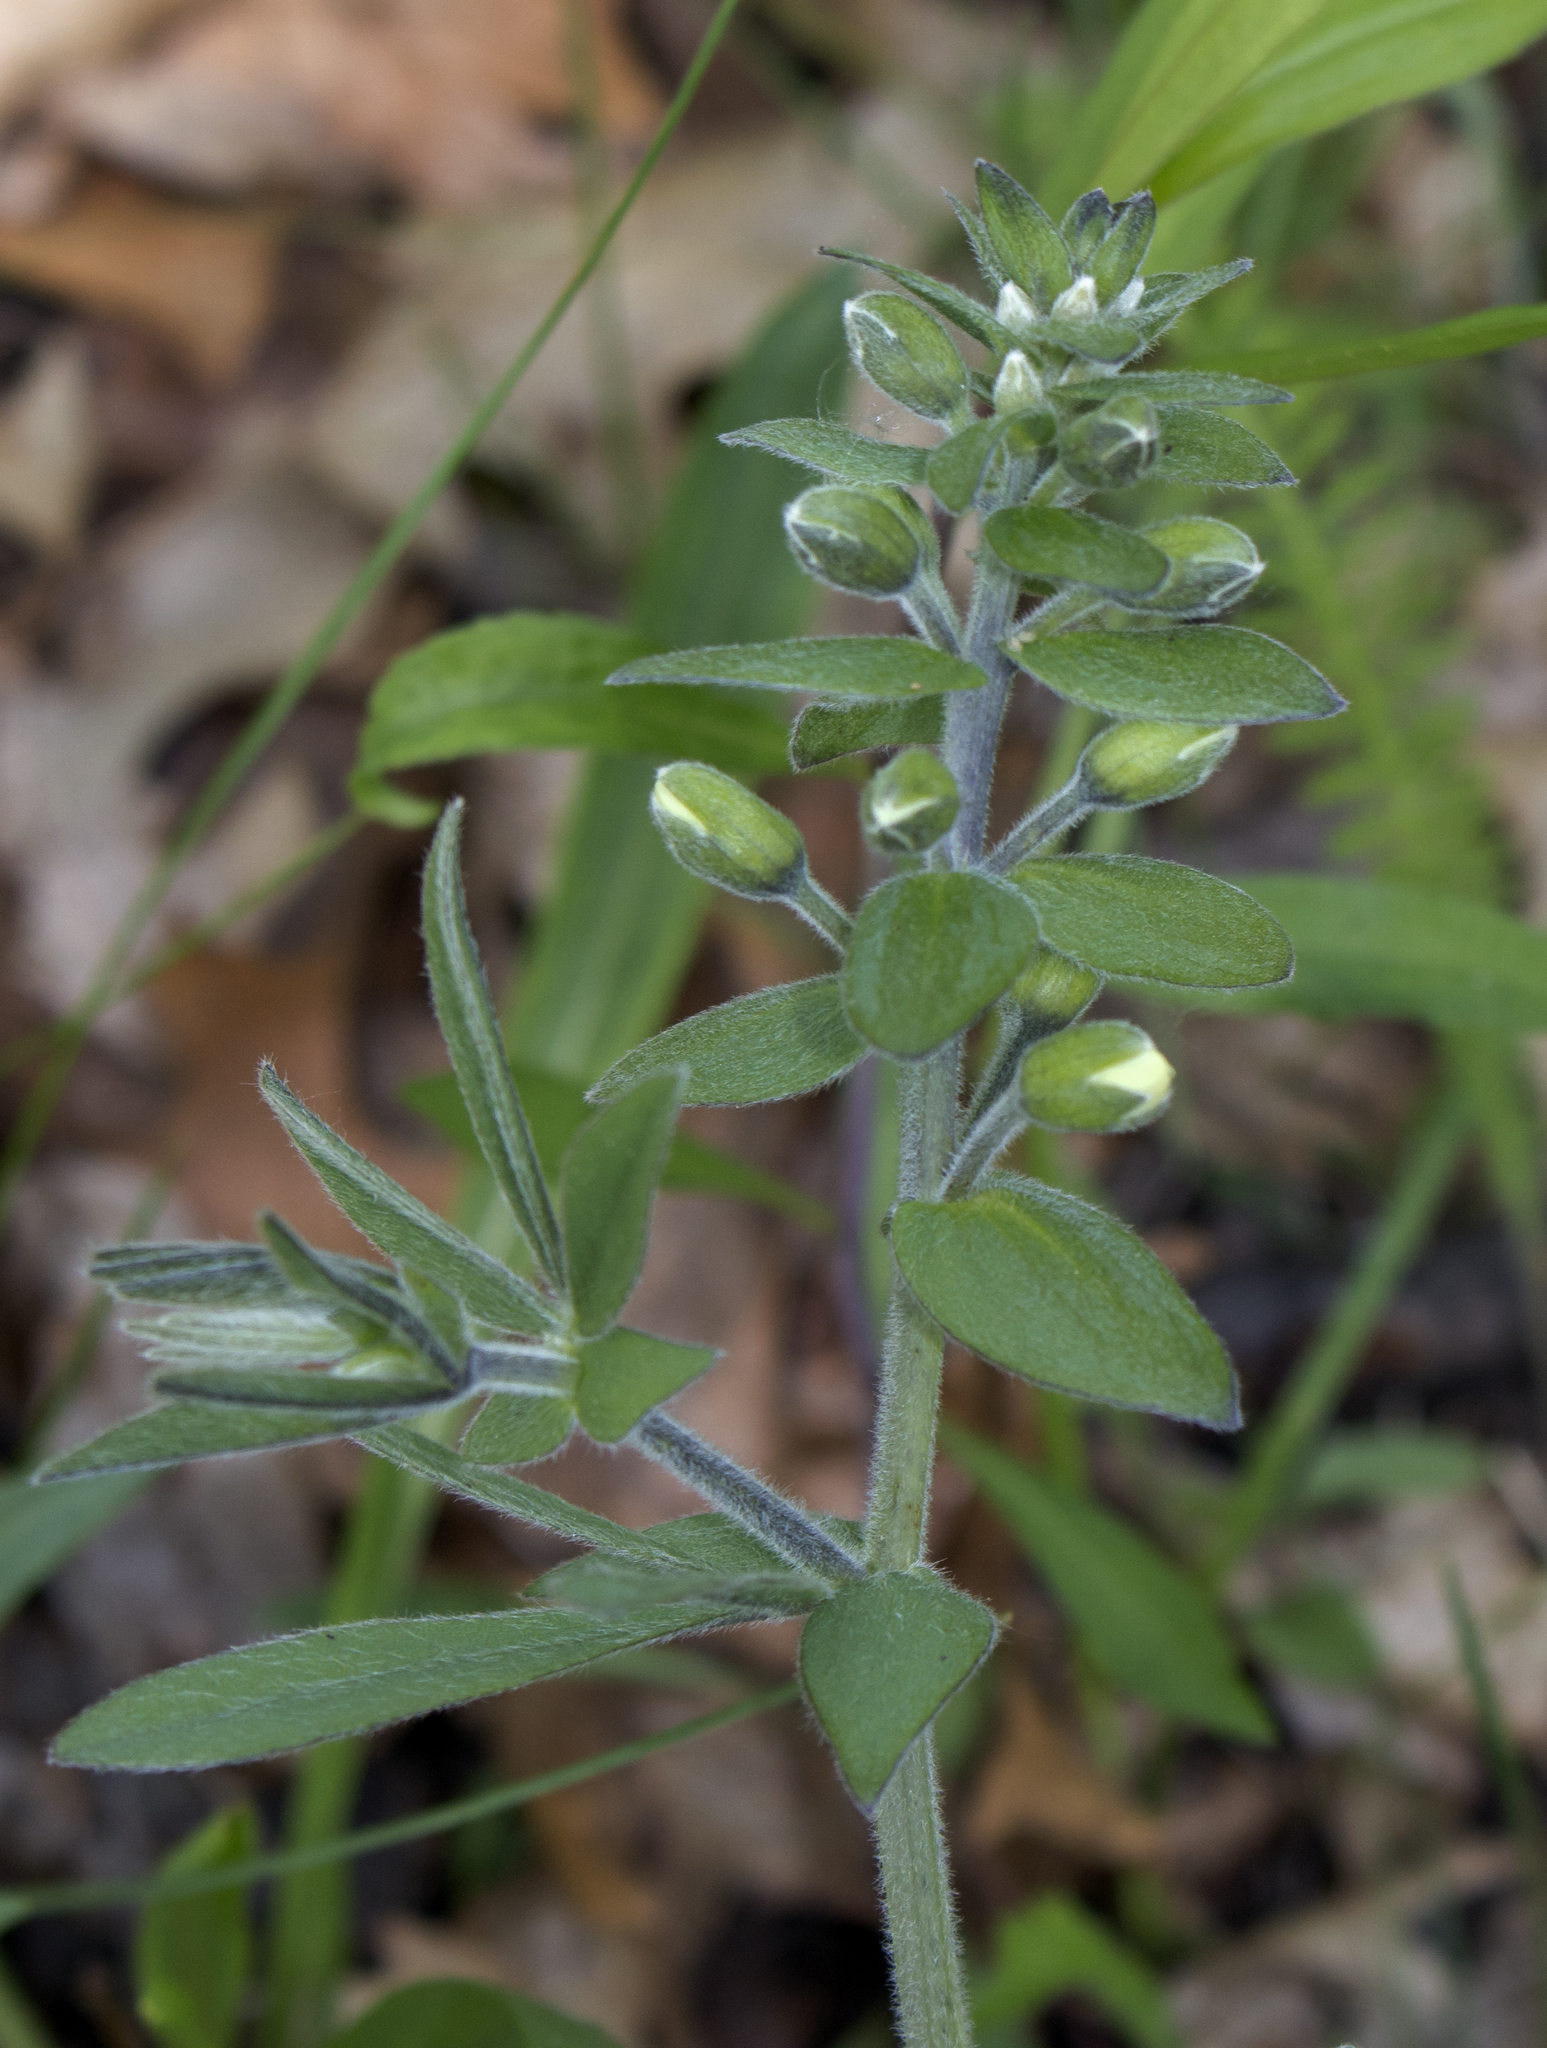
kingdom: Plantae
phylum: Tracheophyta
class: Magnoliopsida
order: Fabales
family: Fabaceae
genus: Baptisia
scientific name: Baptisia bracteata
